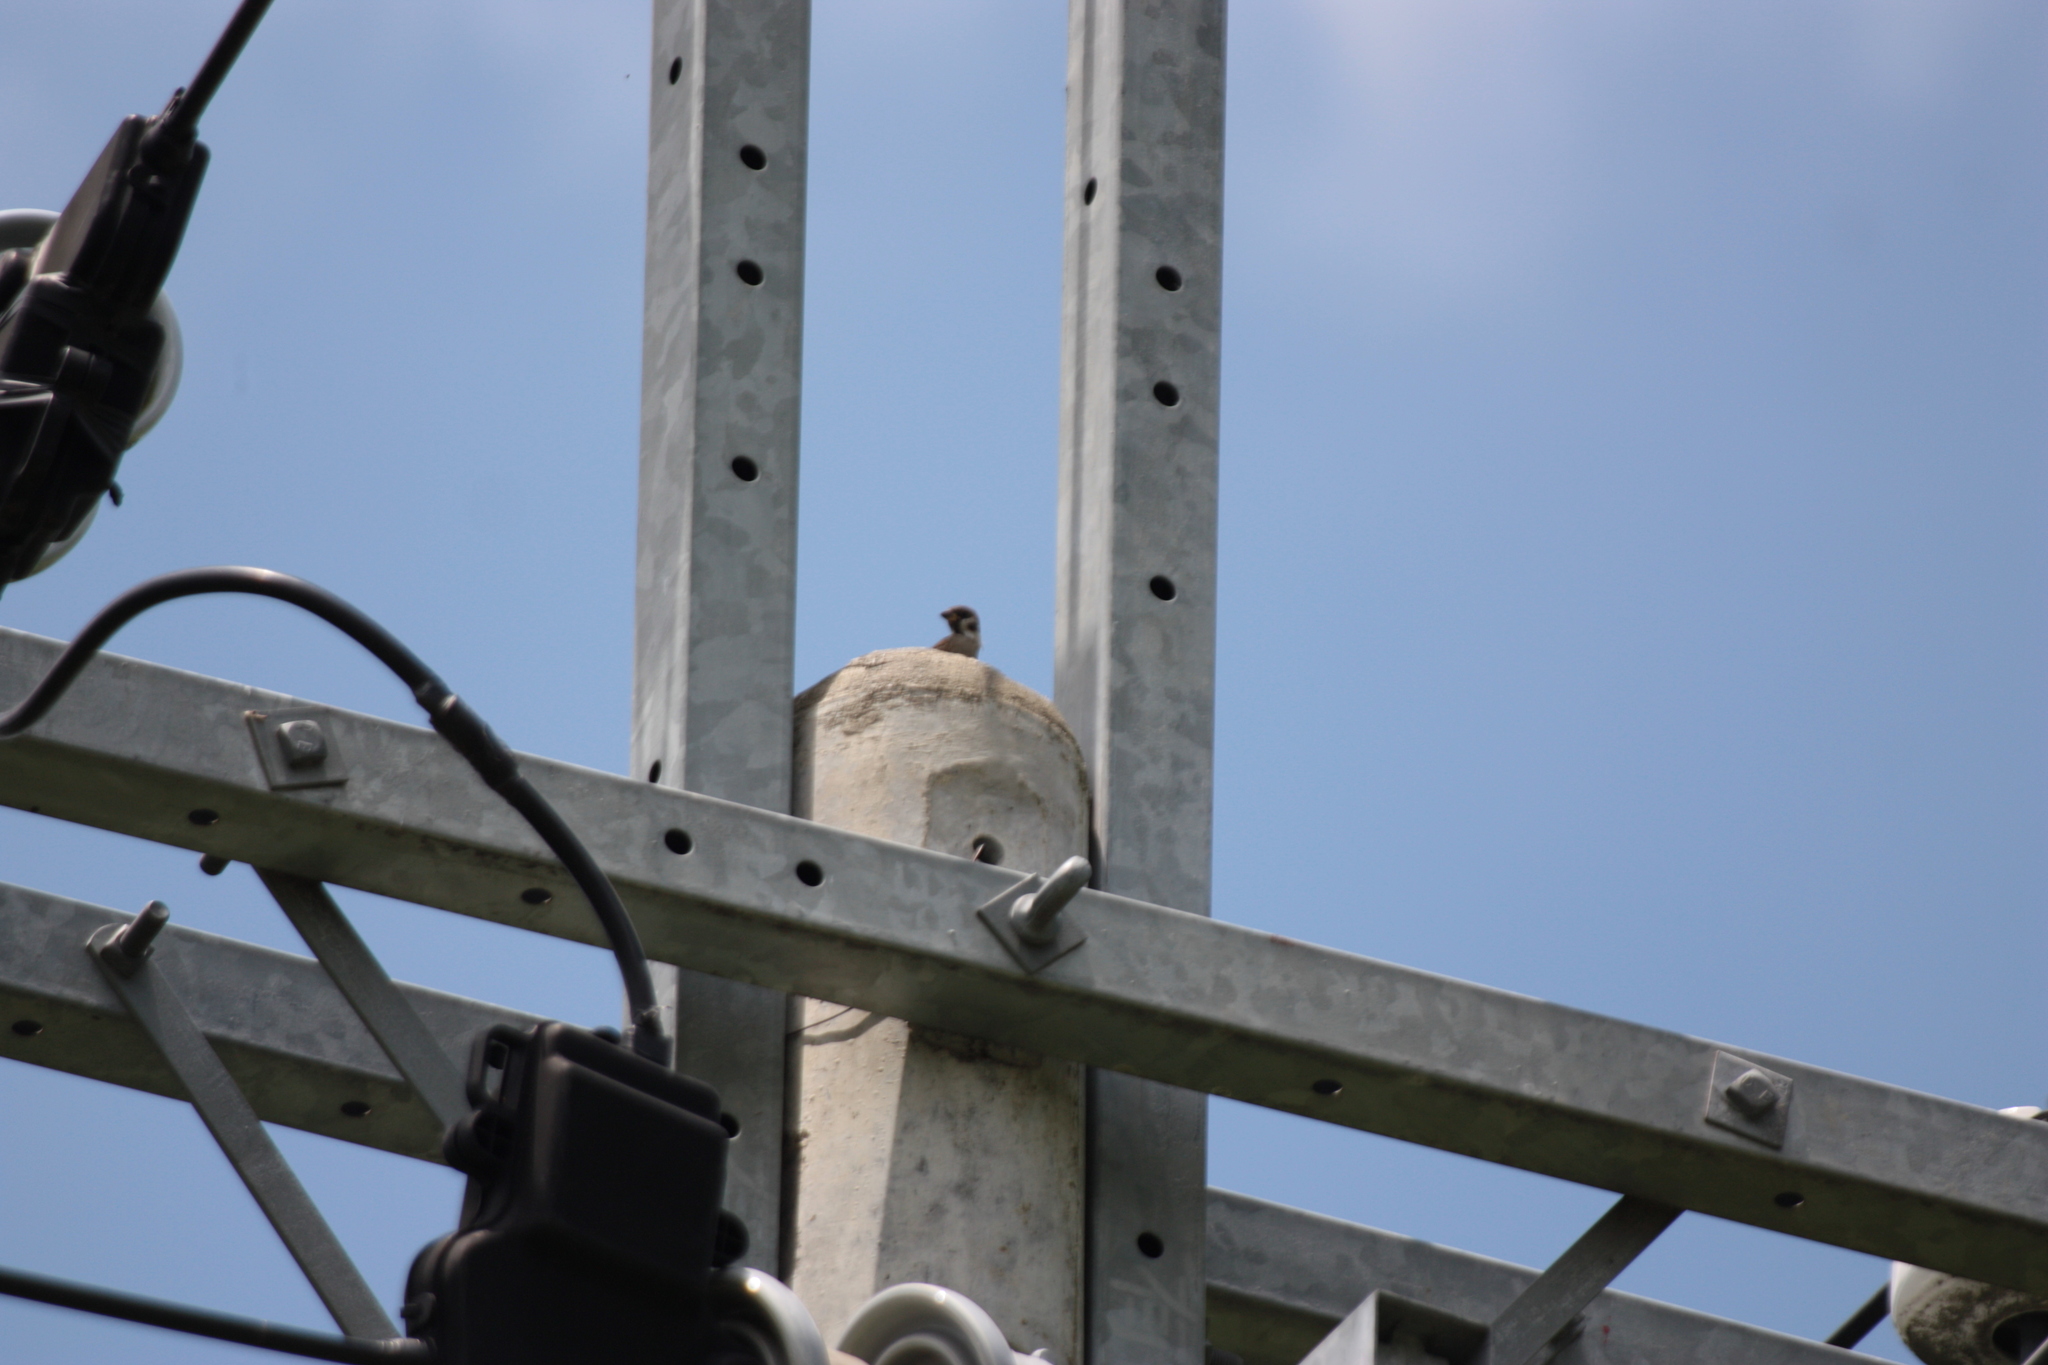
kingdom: Animalia
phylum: Chordata
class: Aves
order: Passeriformes
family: Passeridae
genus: Passer
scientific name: Passer montanus
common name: Eurasian tree sparrow
